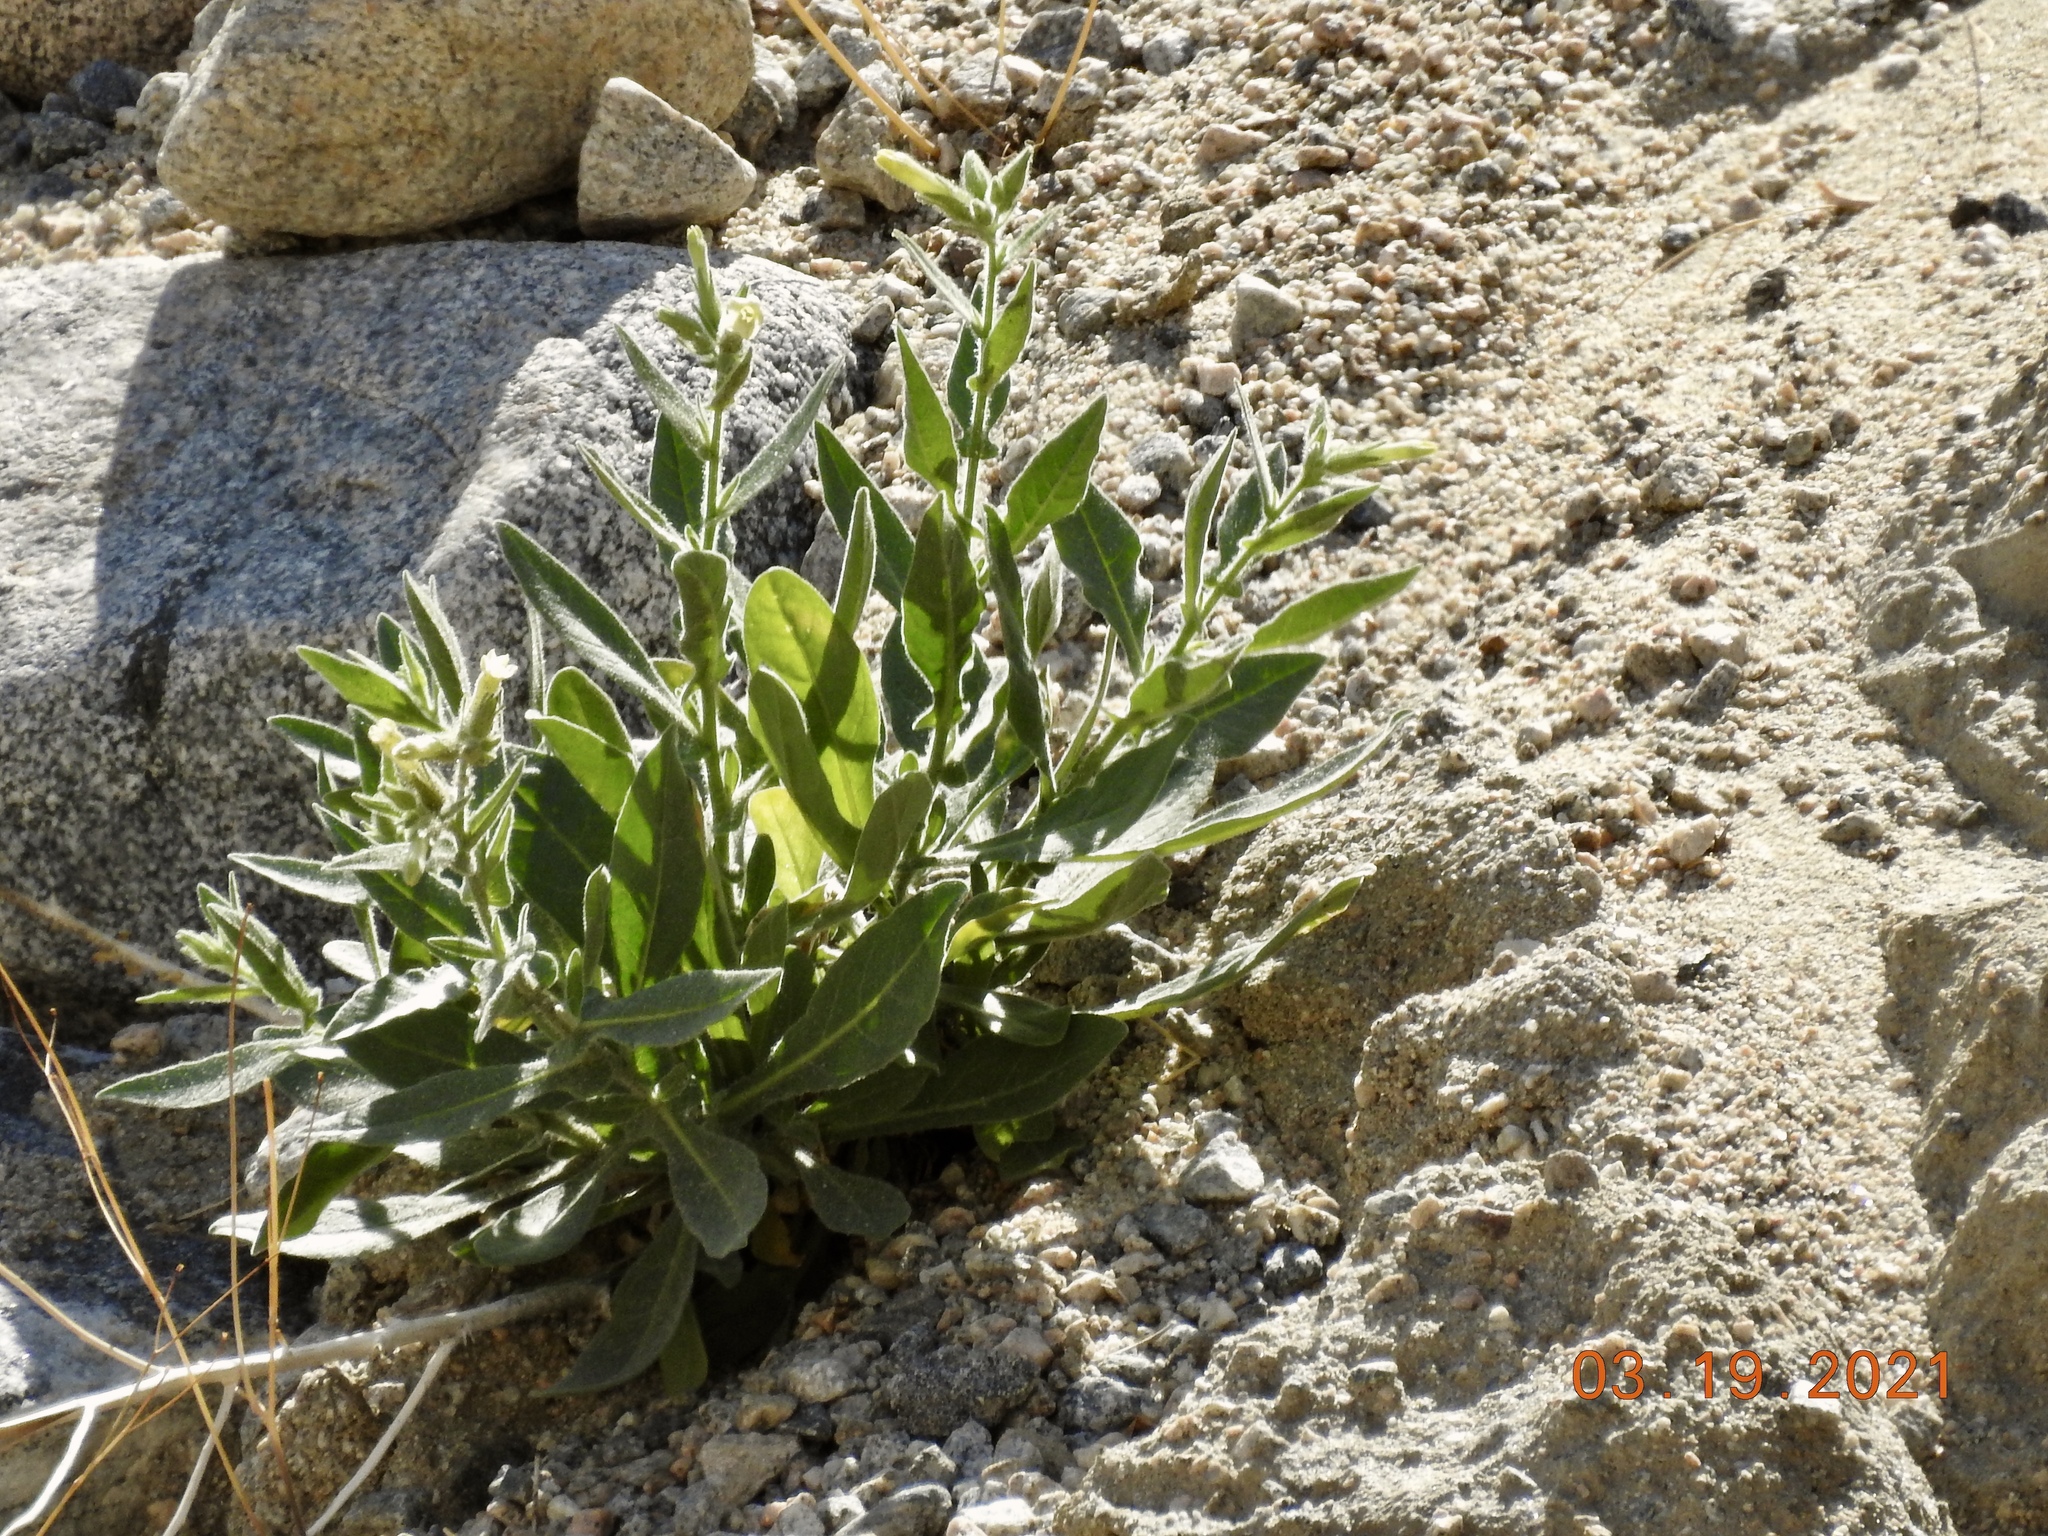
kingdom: Plantae
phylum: Tracheophyta
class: Magnoliopsida
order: Solanales
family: Solanaceae
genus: Nicotiana
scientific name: Nicotiana obtusifolia
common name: Desert tobacco
